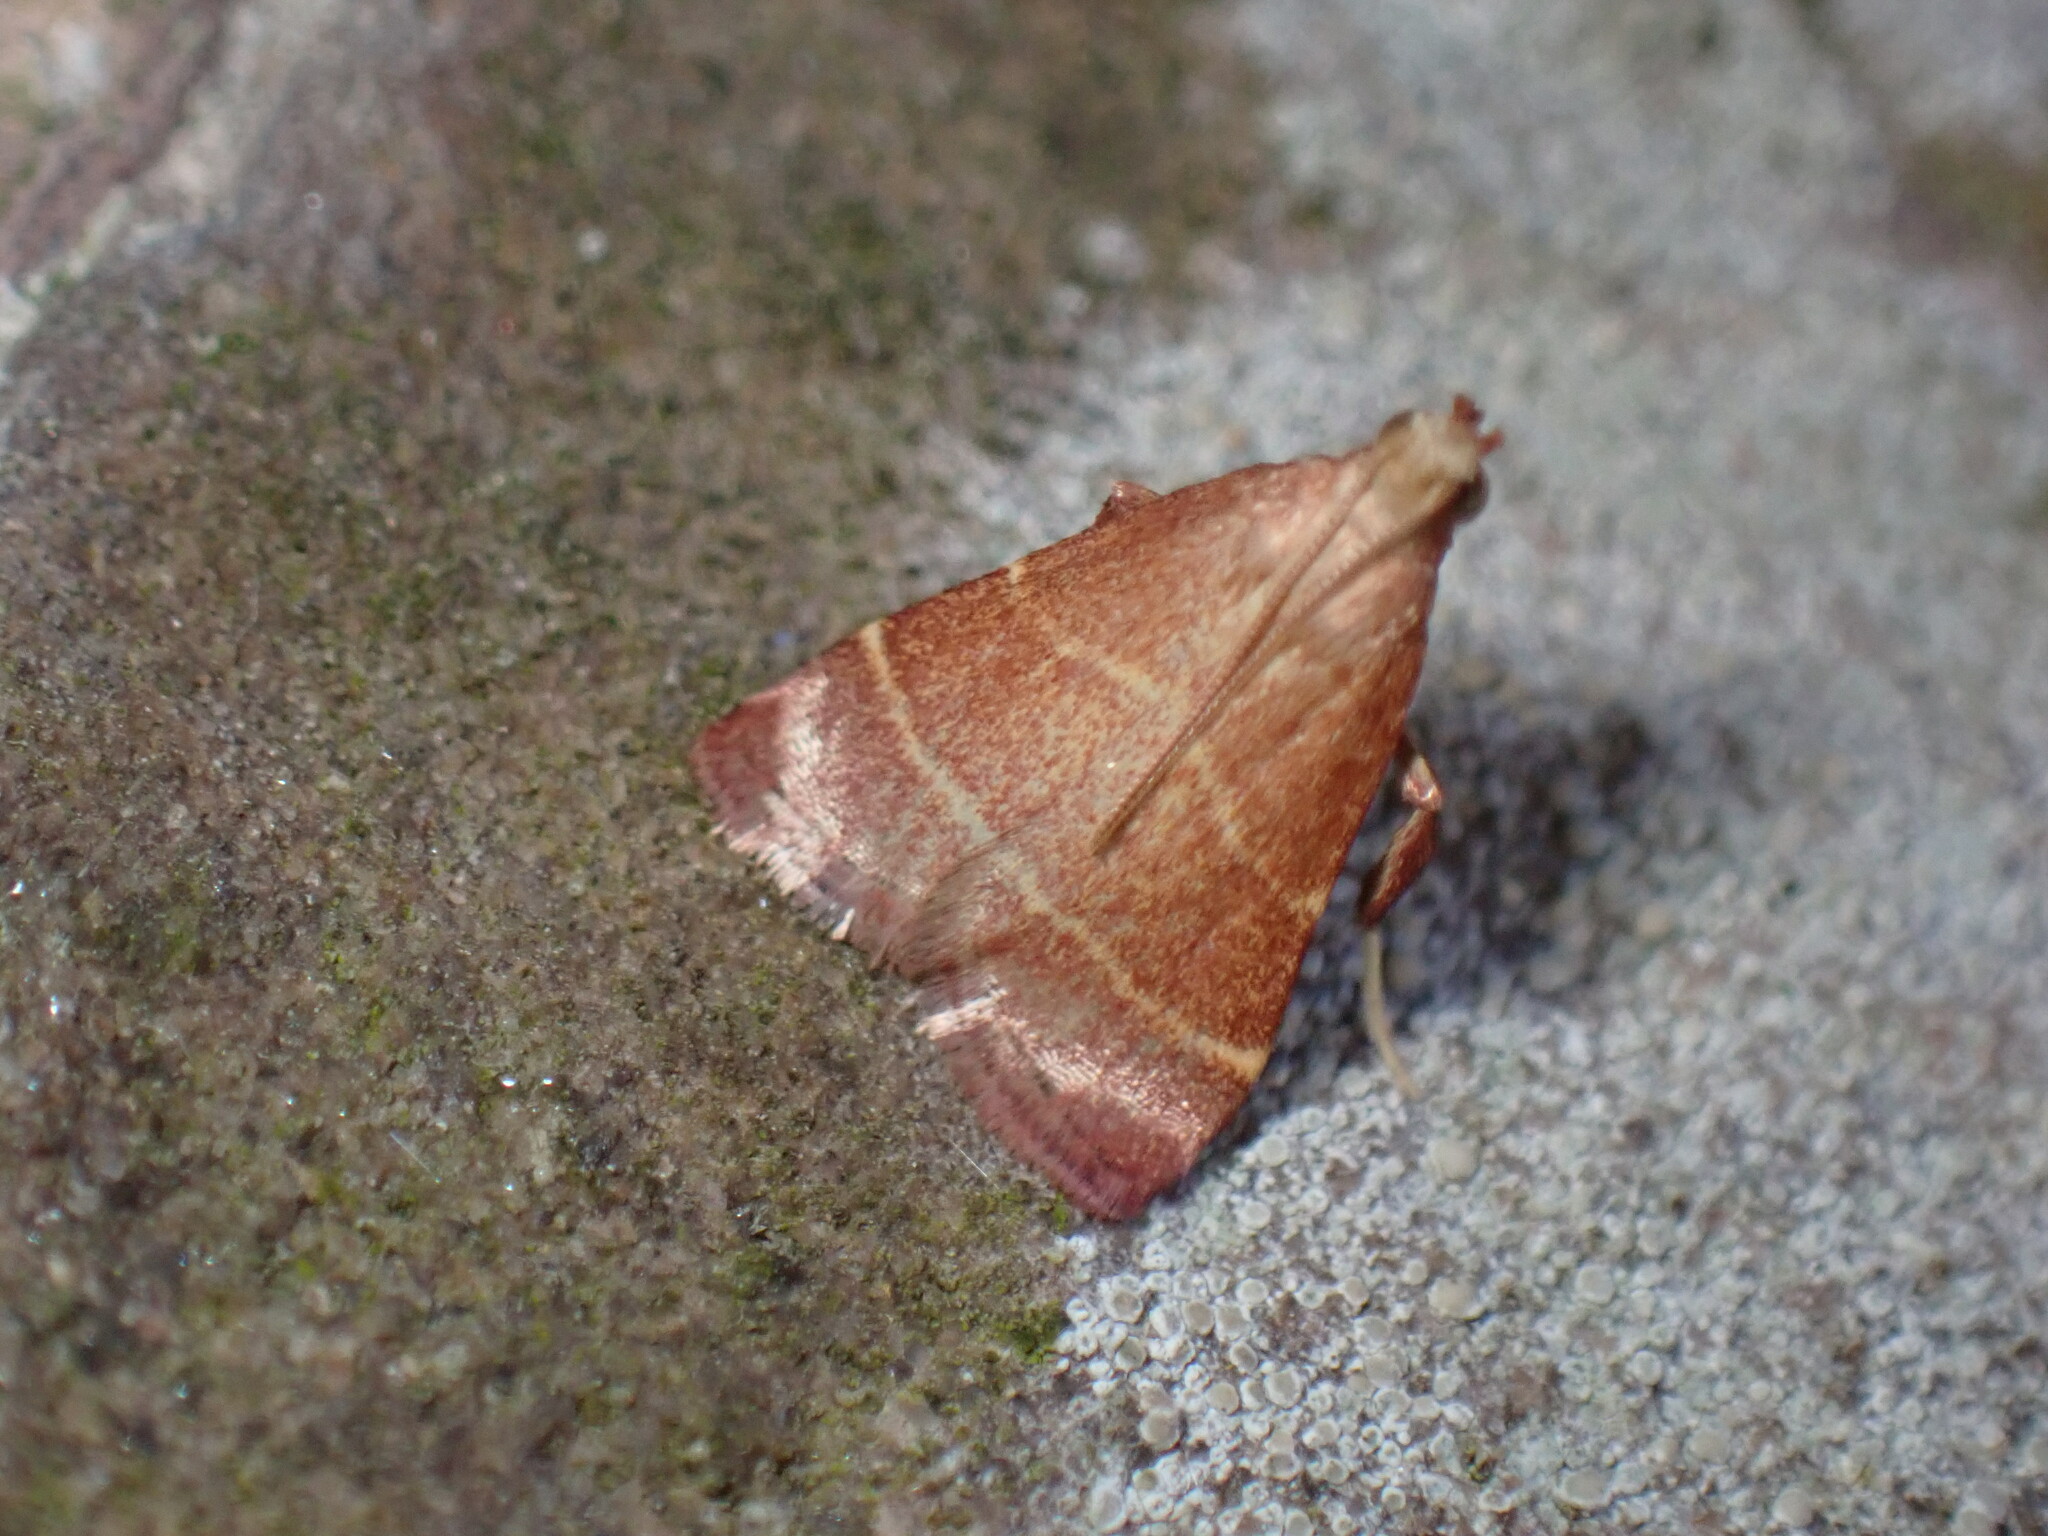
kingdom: Animalia
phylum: Arthropoda
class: Insecta
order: Lepidoptera
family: Pyralidae
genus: Arta
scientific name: Arta statalis
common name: Posturing arta moth
